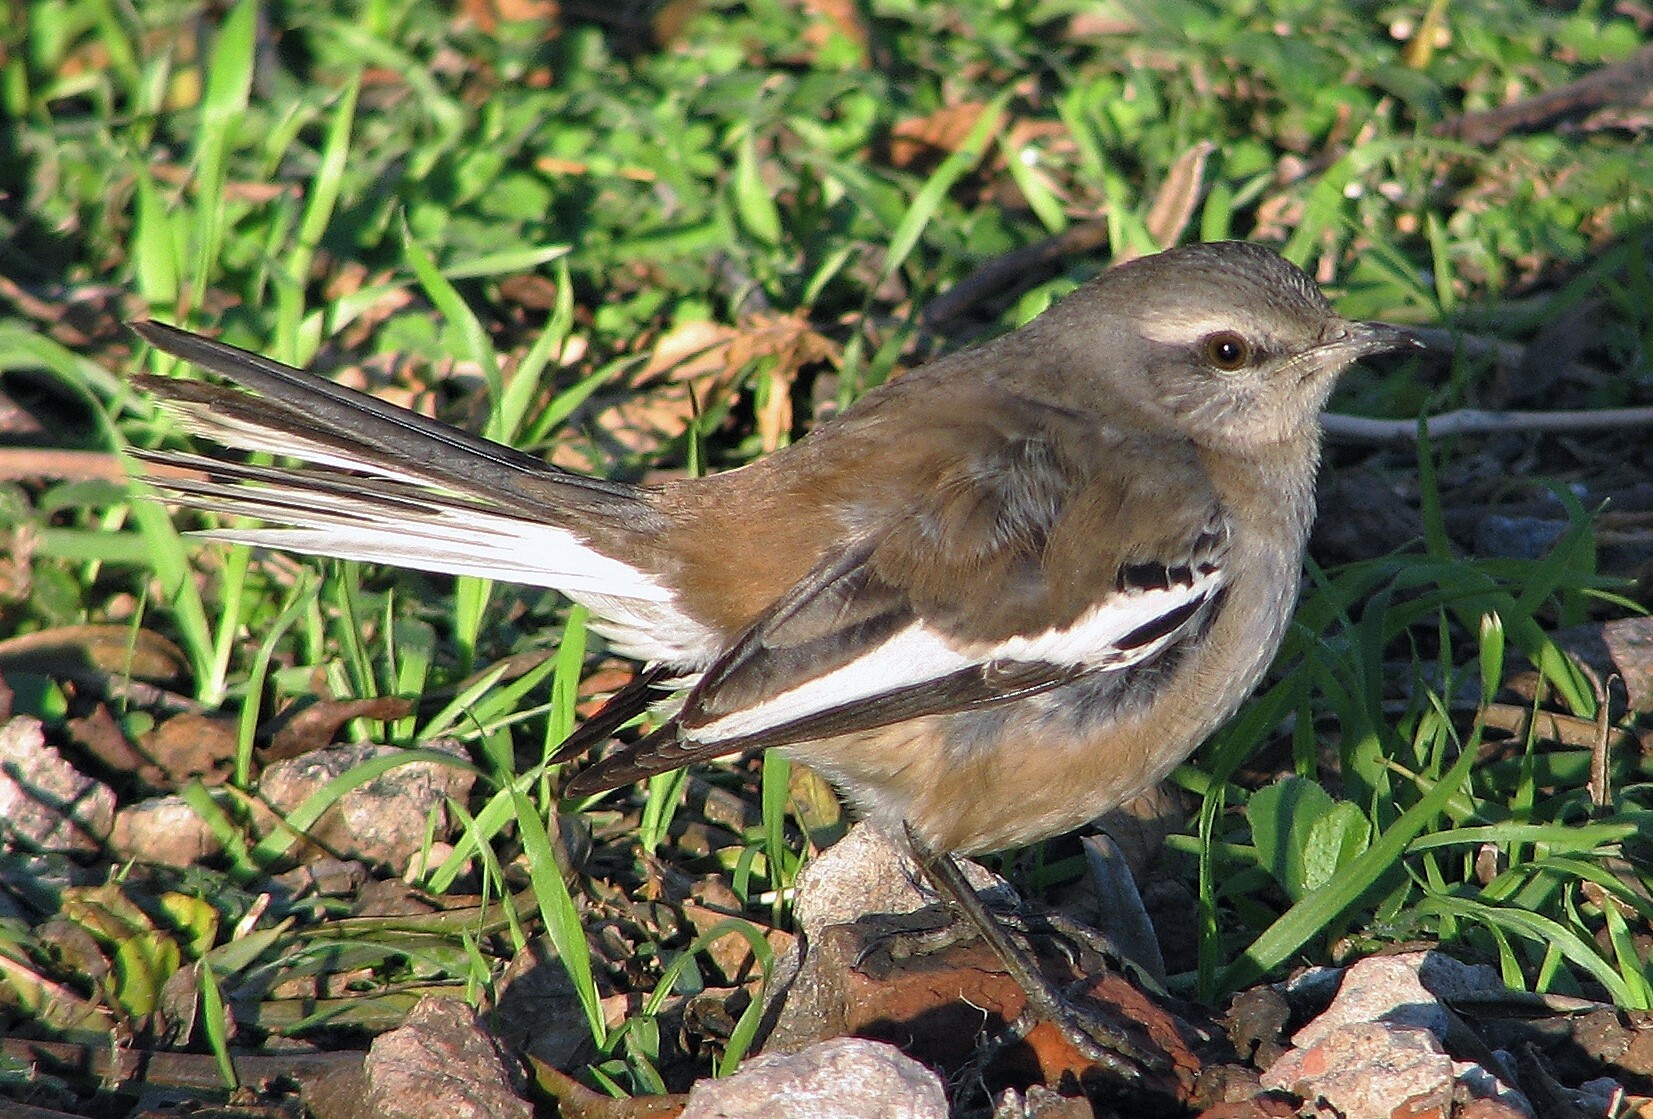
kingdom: Animalia
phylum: Chordata
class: Aves
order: Passeriformes
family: Mimidae
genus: Mimus
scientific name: Mimus triurus
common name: White-banded mockingbird
